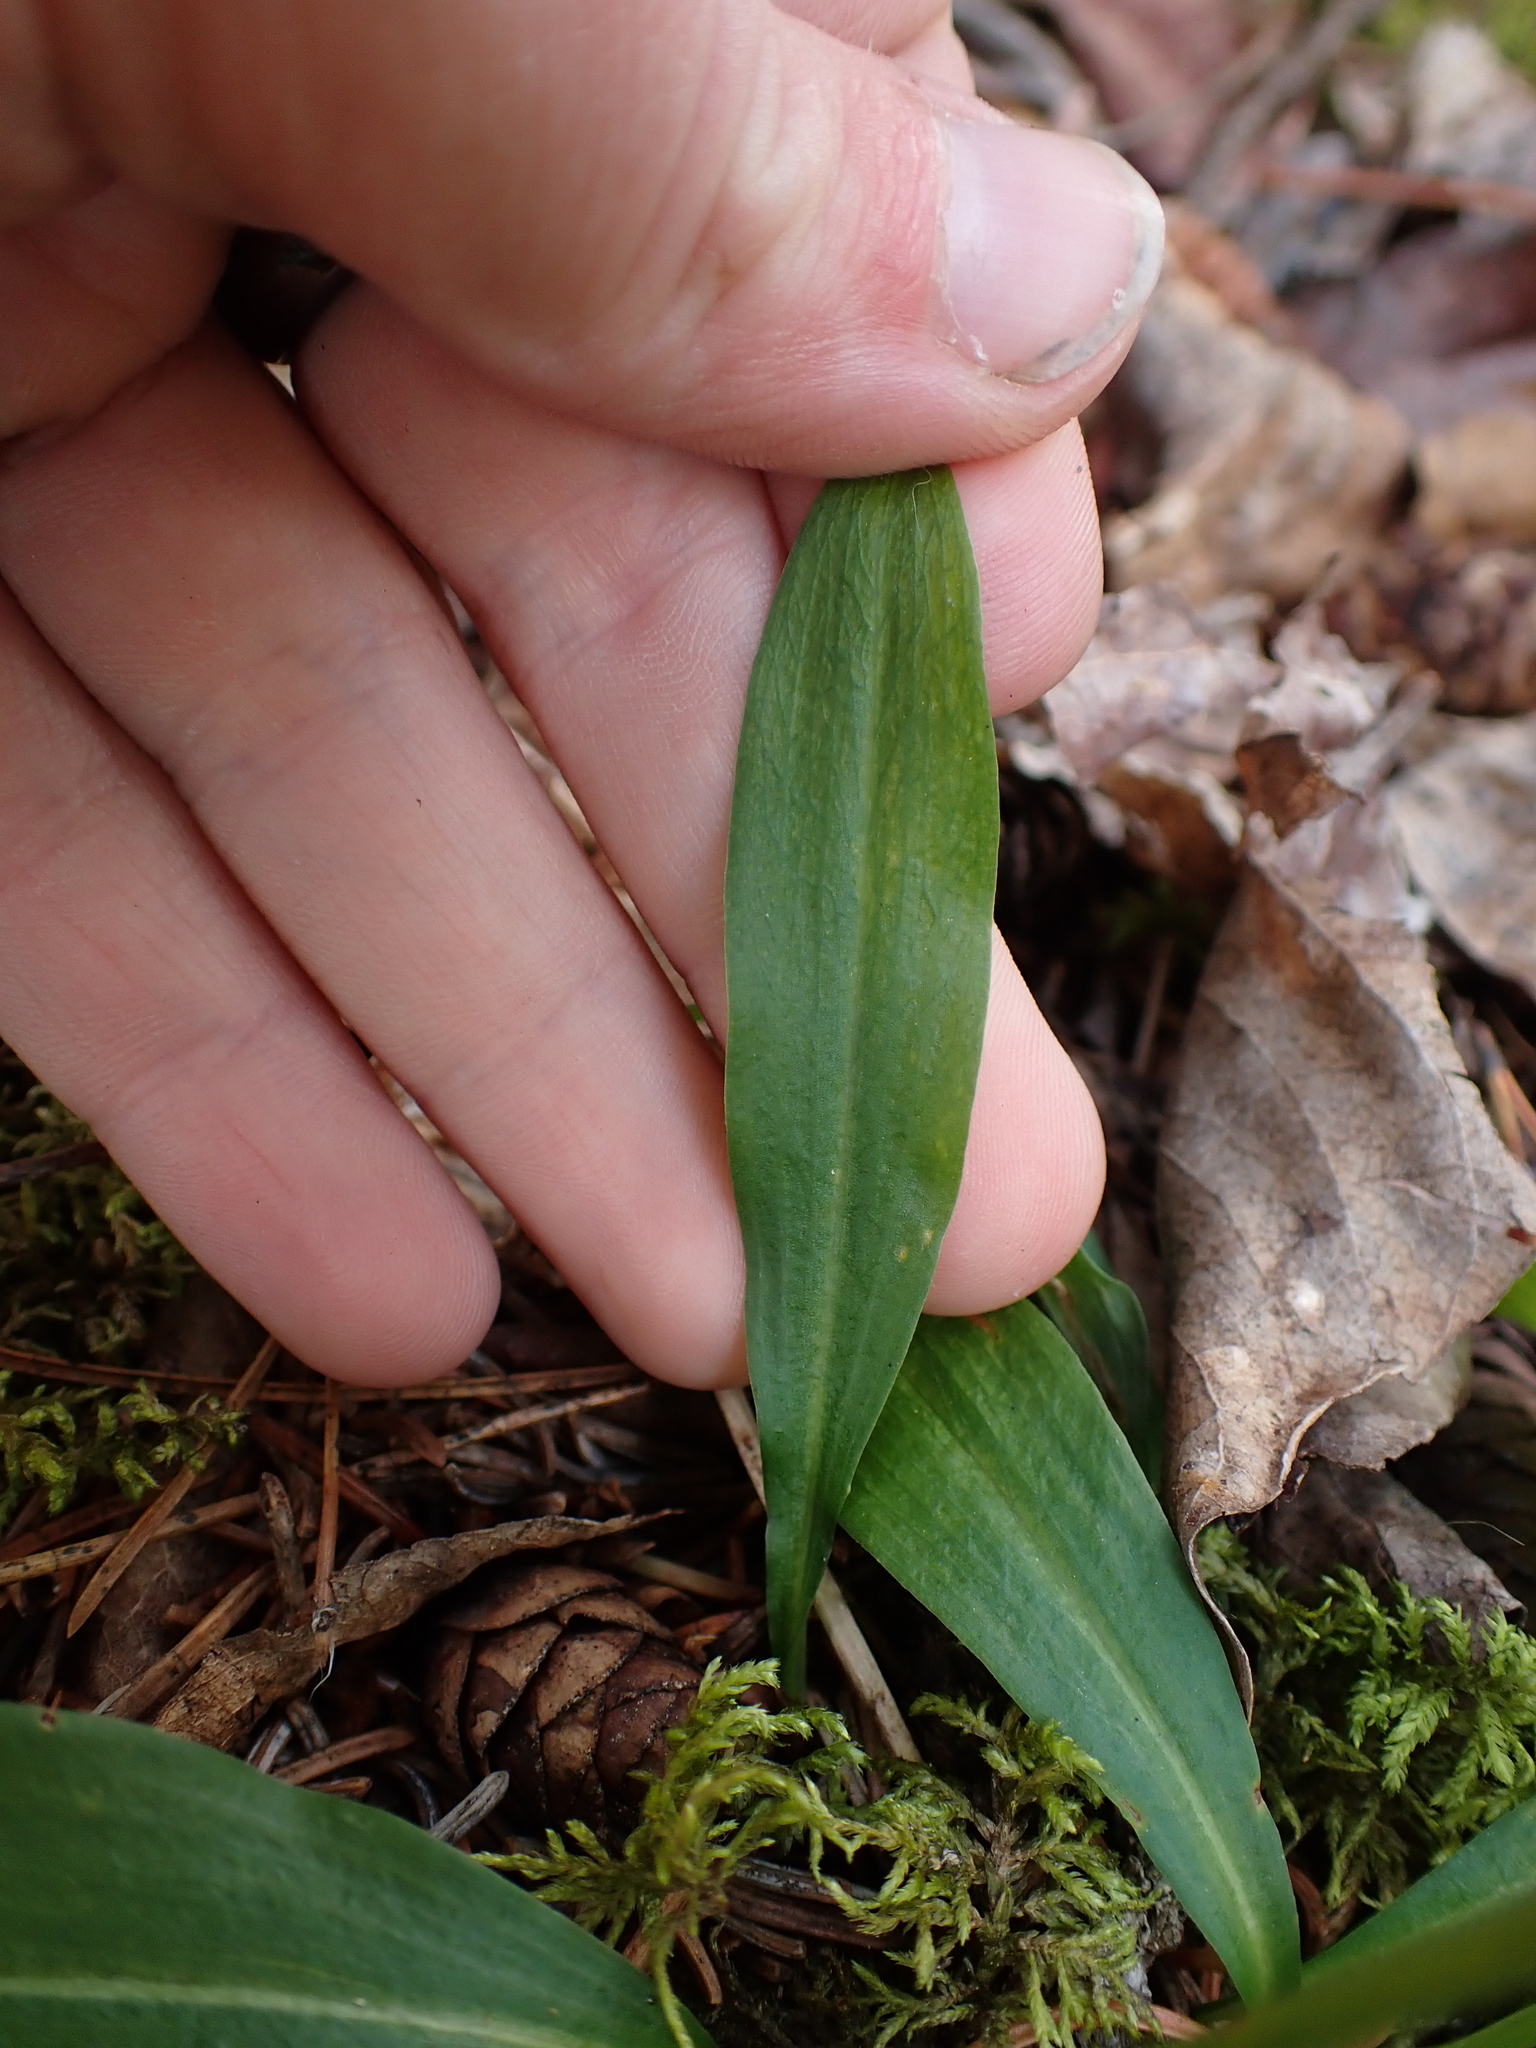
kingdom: Plantae
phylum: Tracheophyta
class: Liliopsida
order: Asparagales
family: Orchidaceae
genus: Platanthera
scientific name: Platanthera obtusata
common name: Blunt bog orchid
